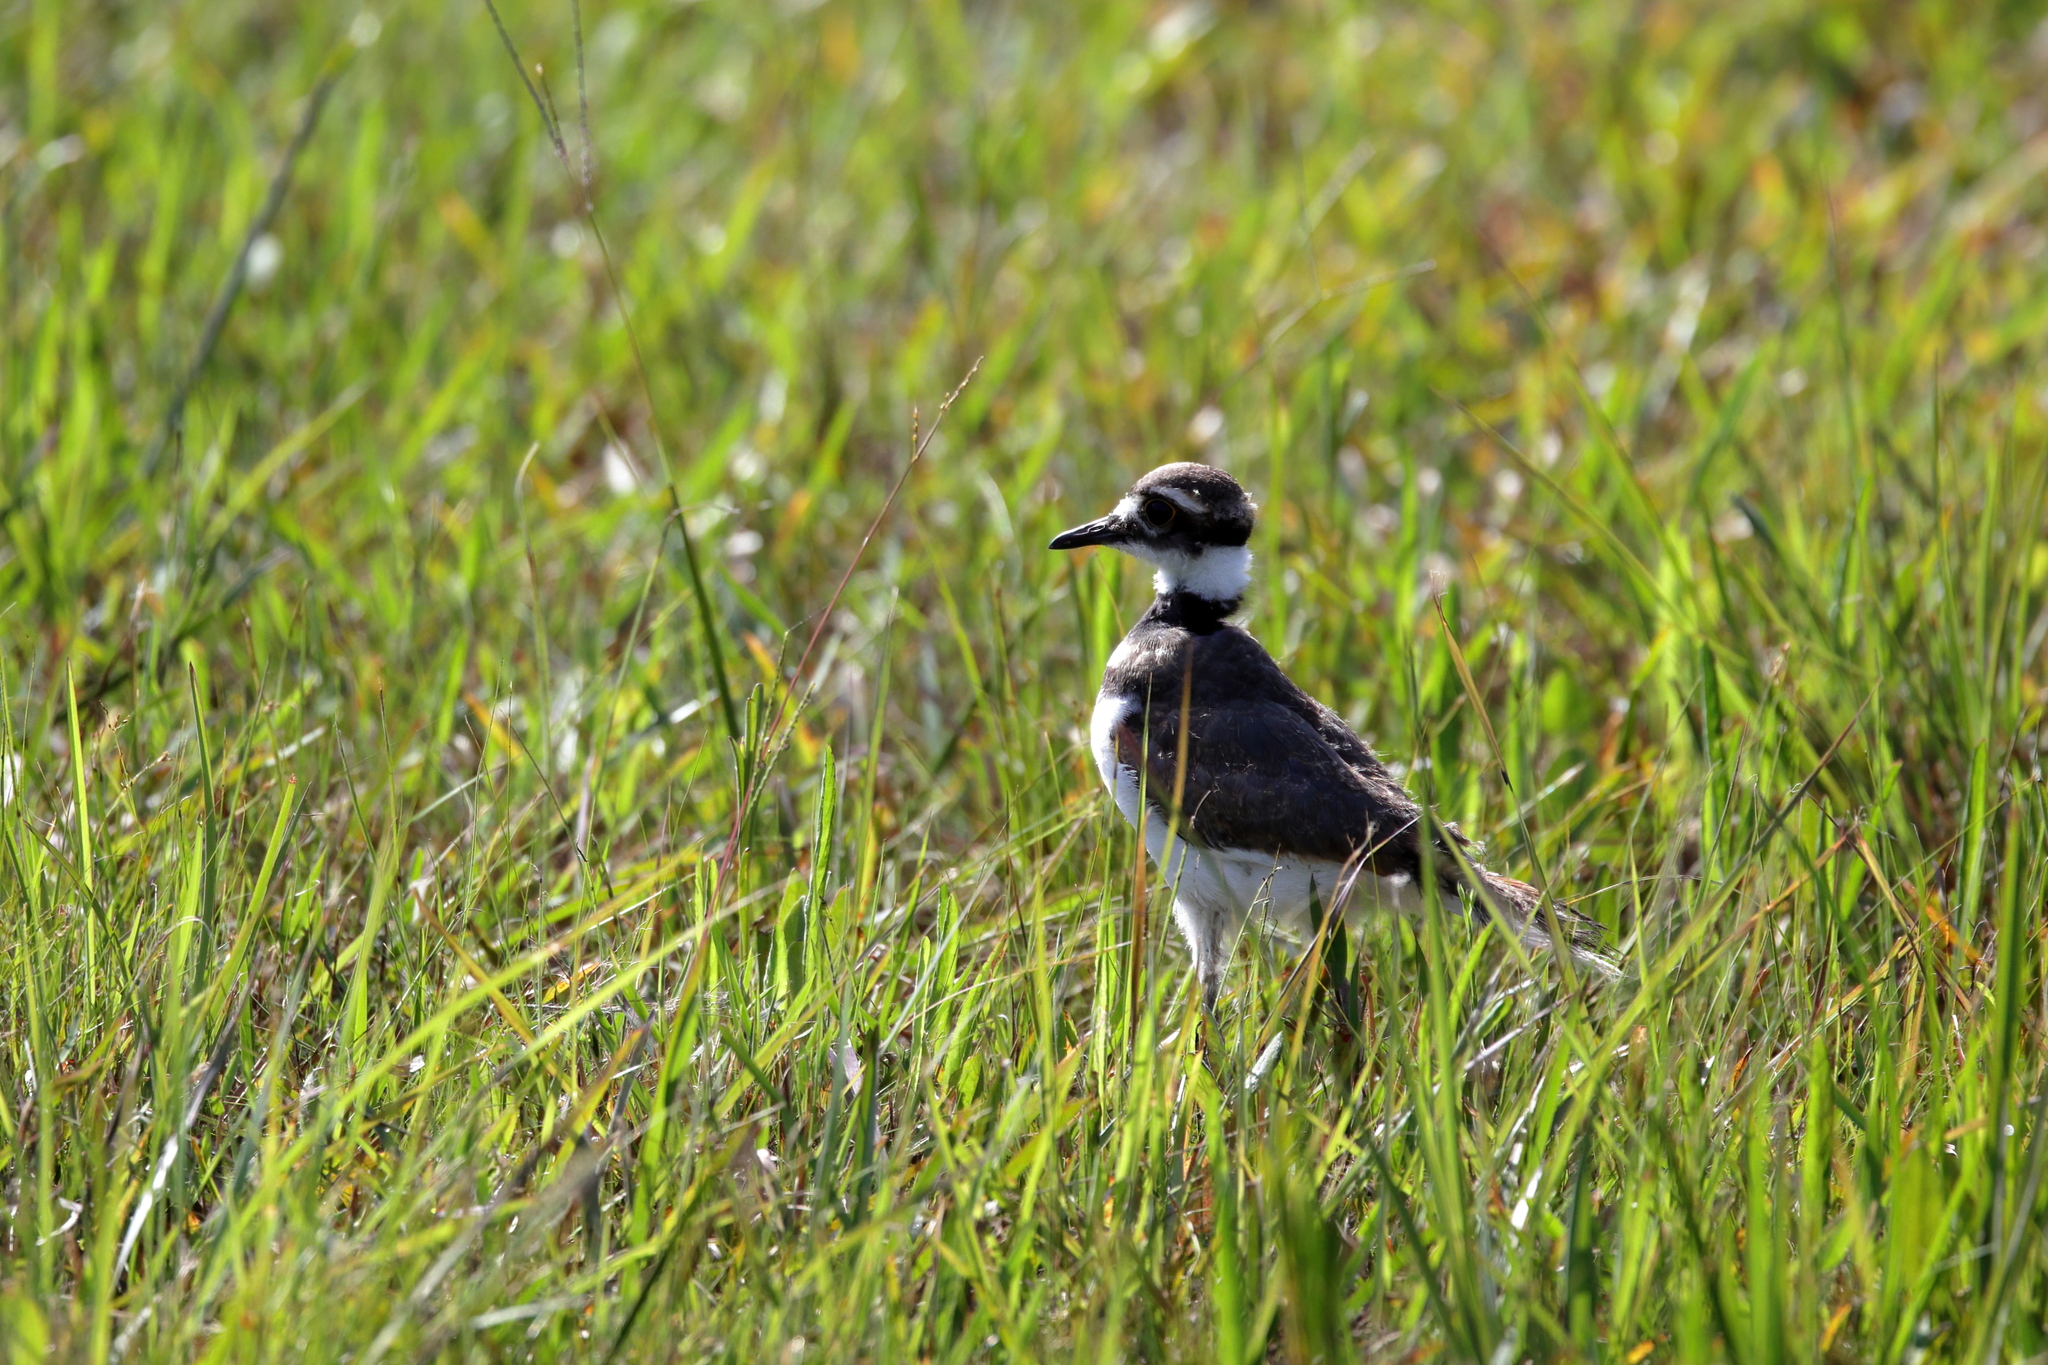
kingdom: Animalia
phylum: Chordata
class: Aves
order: Charadriiformes
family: Charadriidae
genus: Charadrius
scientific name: Charadrius vociferus
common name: Killdeer
